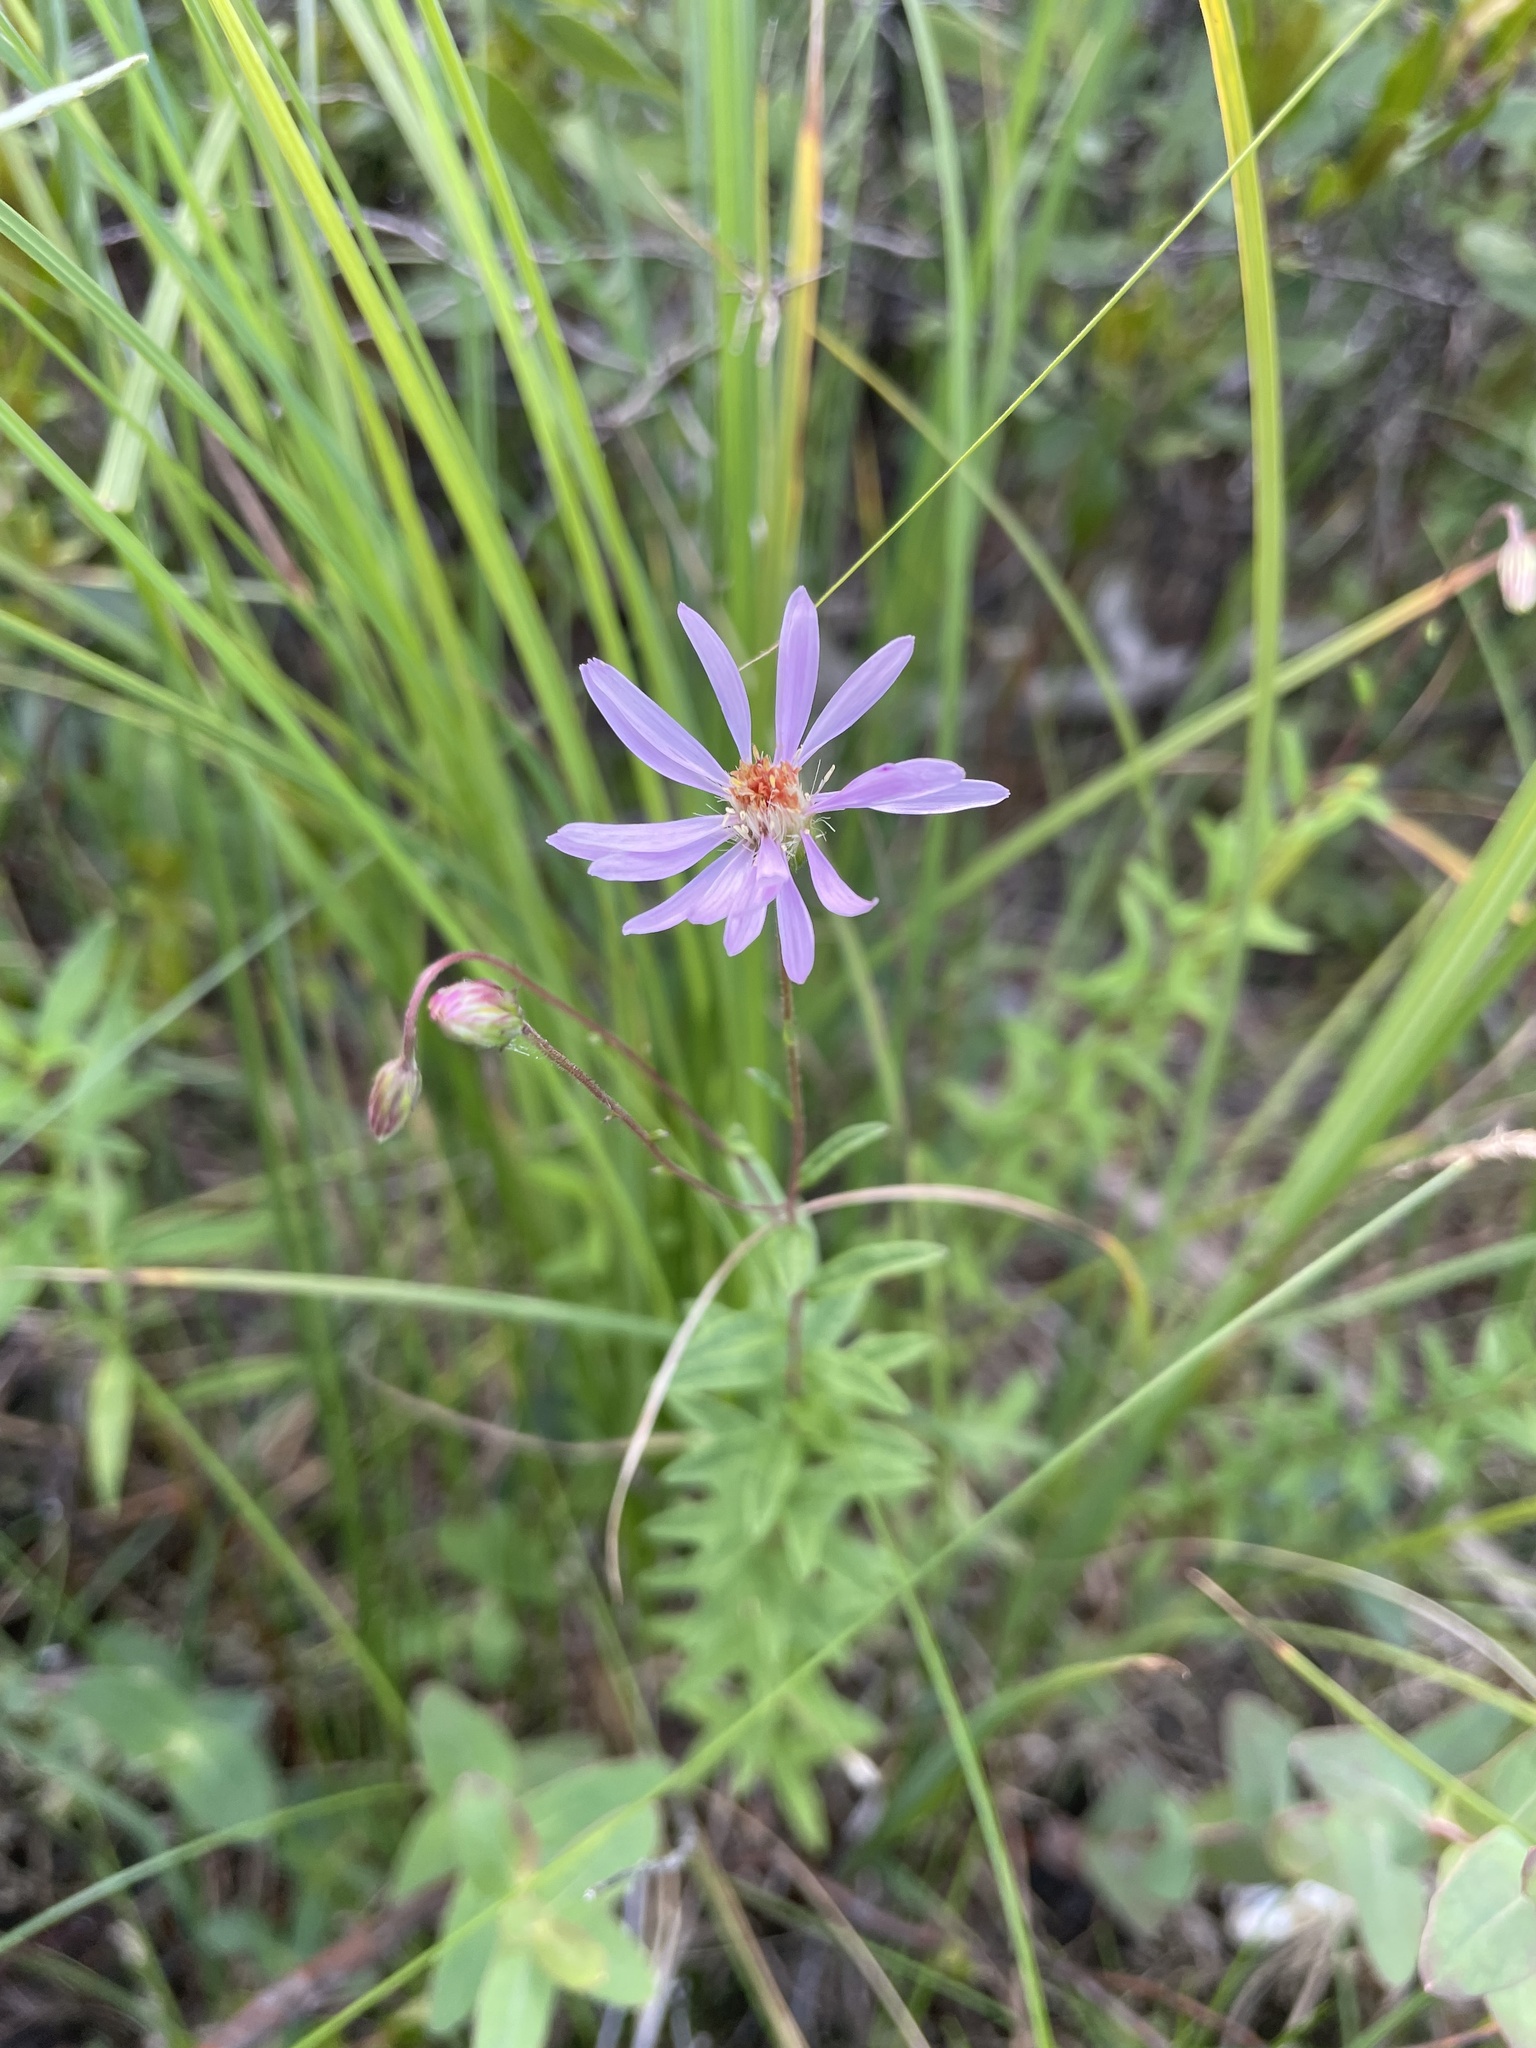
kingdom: Plantae
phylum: Tracheophyta
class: Magnoliopsida
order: Asterales
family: Asteraceae
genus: Oclemena
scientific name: Oclemena nemoralis
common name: Bog aster
